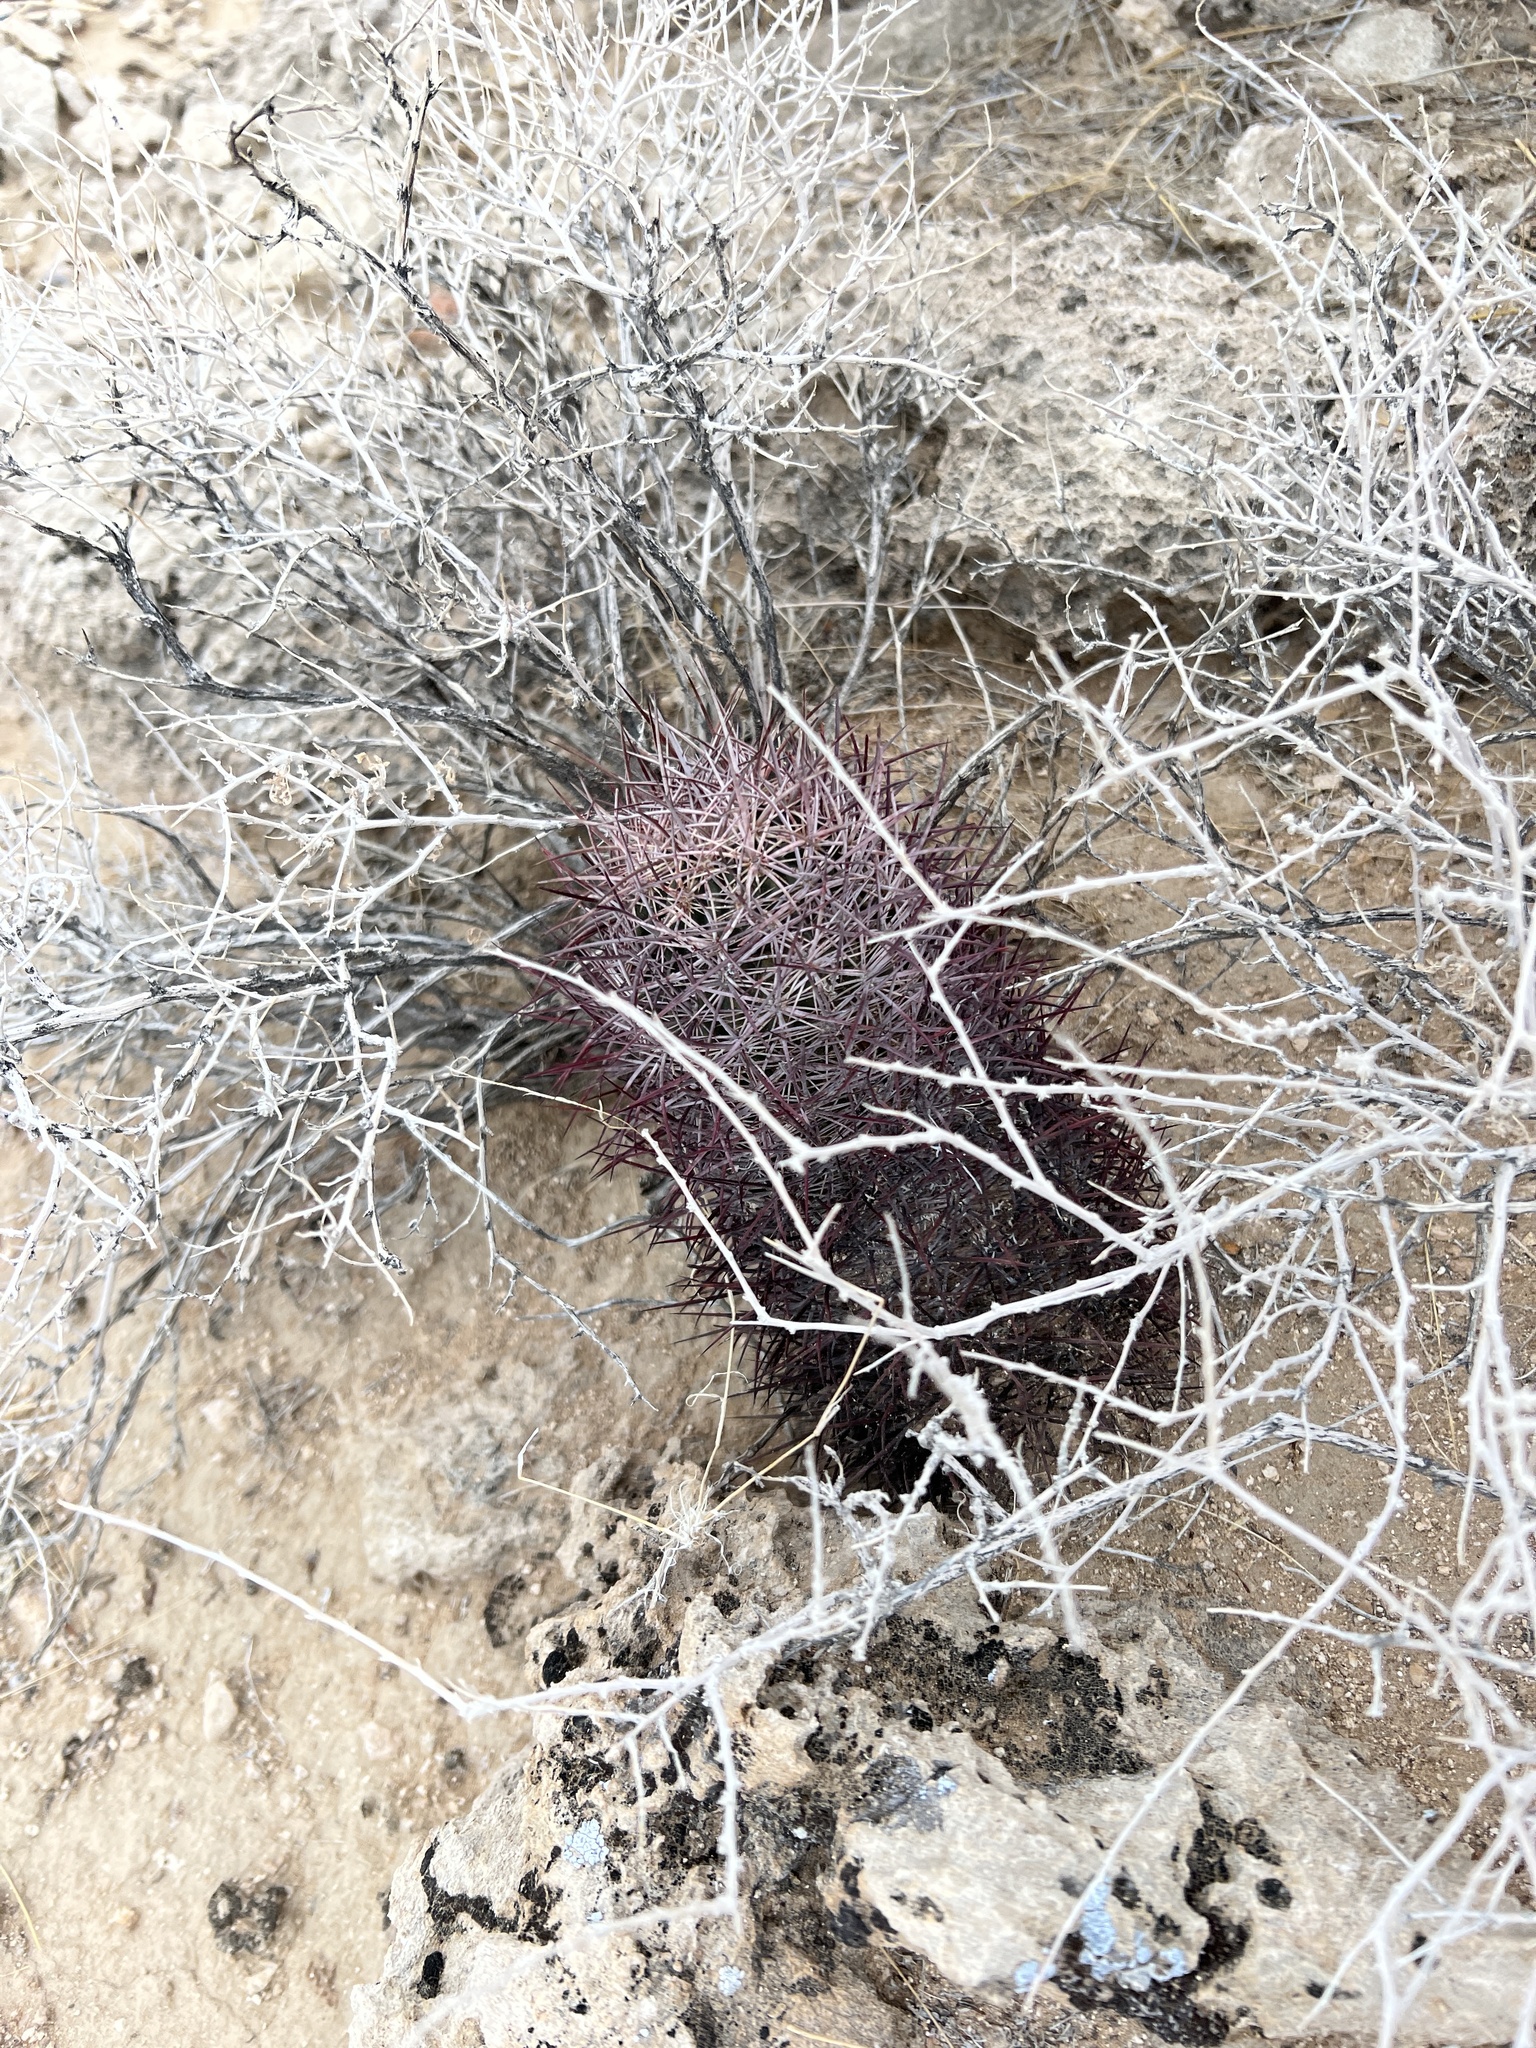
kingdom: Plantae
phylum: Tracheophyta
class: Magnoliopsida
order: Caryophyllales
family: Cactaceae
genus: Sclerocactus
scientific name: Sclerocactus johnsonii
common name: Eight-spine fishhook cactus
